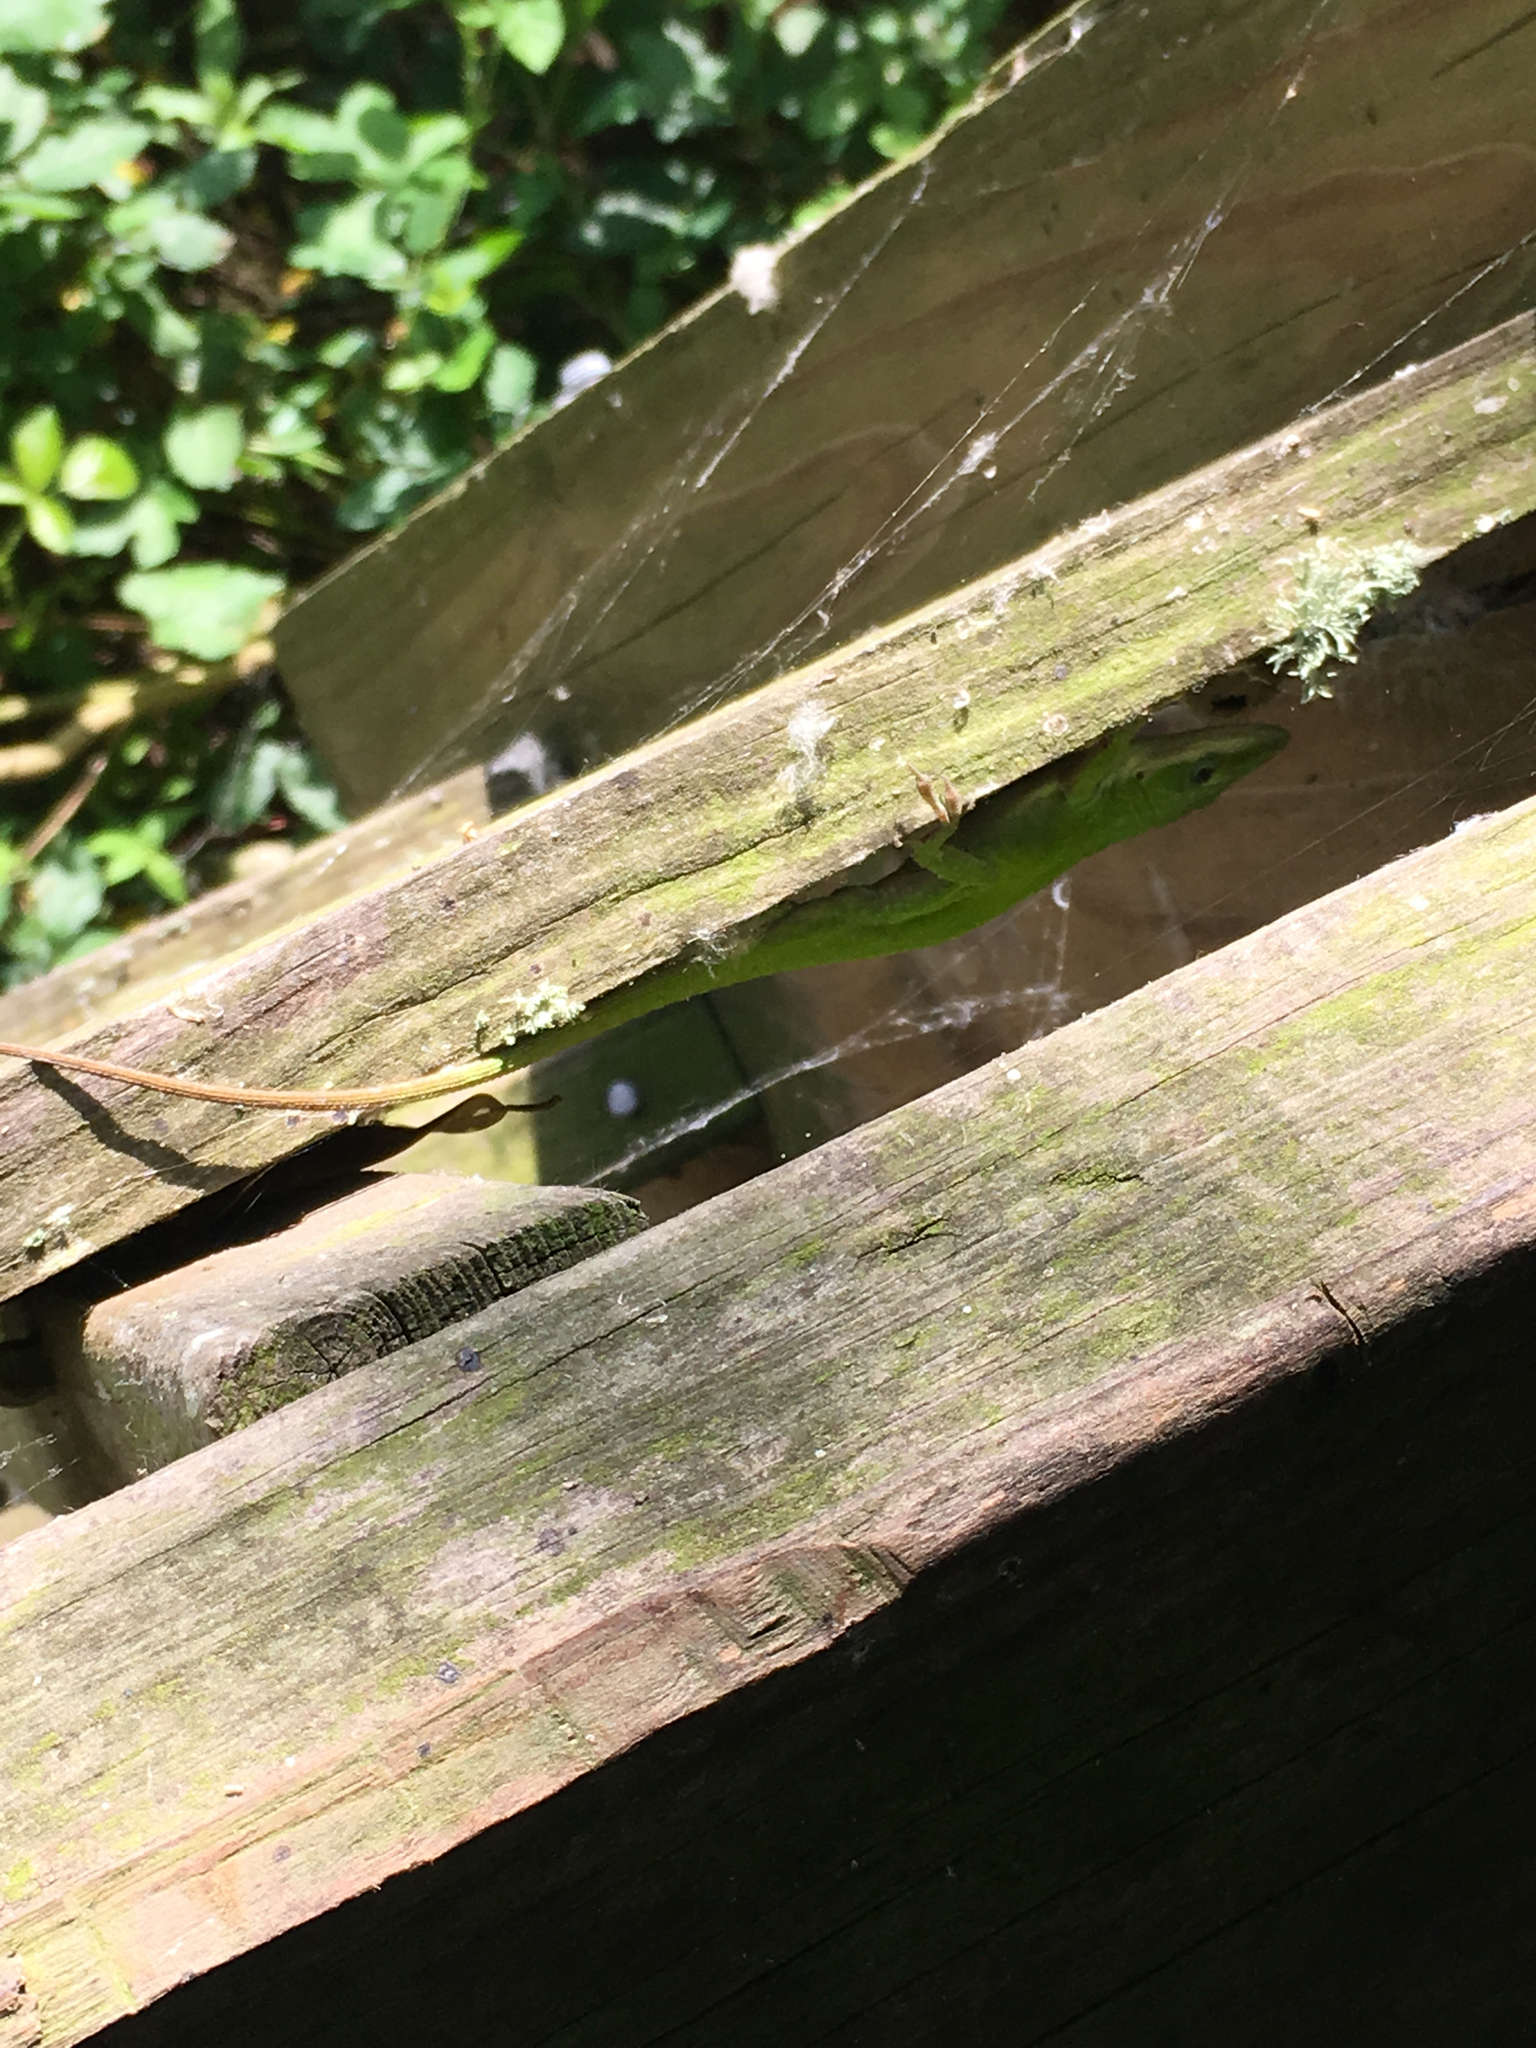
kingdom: Animalia
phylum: Chordata
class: Squamata
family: Dactyloidae
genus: Anolis
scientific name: Anolis carolinensis
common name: Green anole
